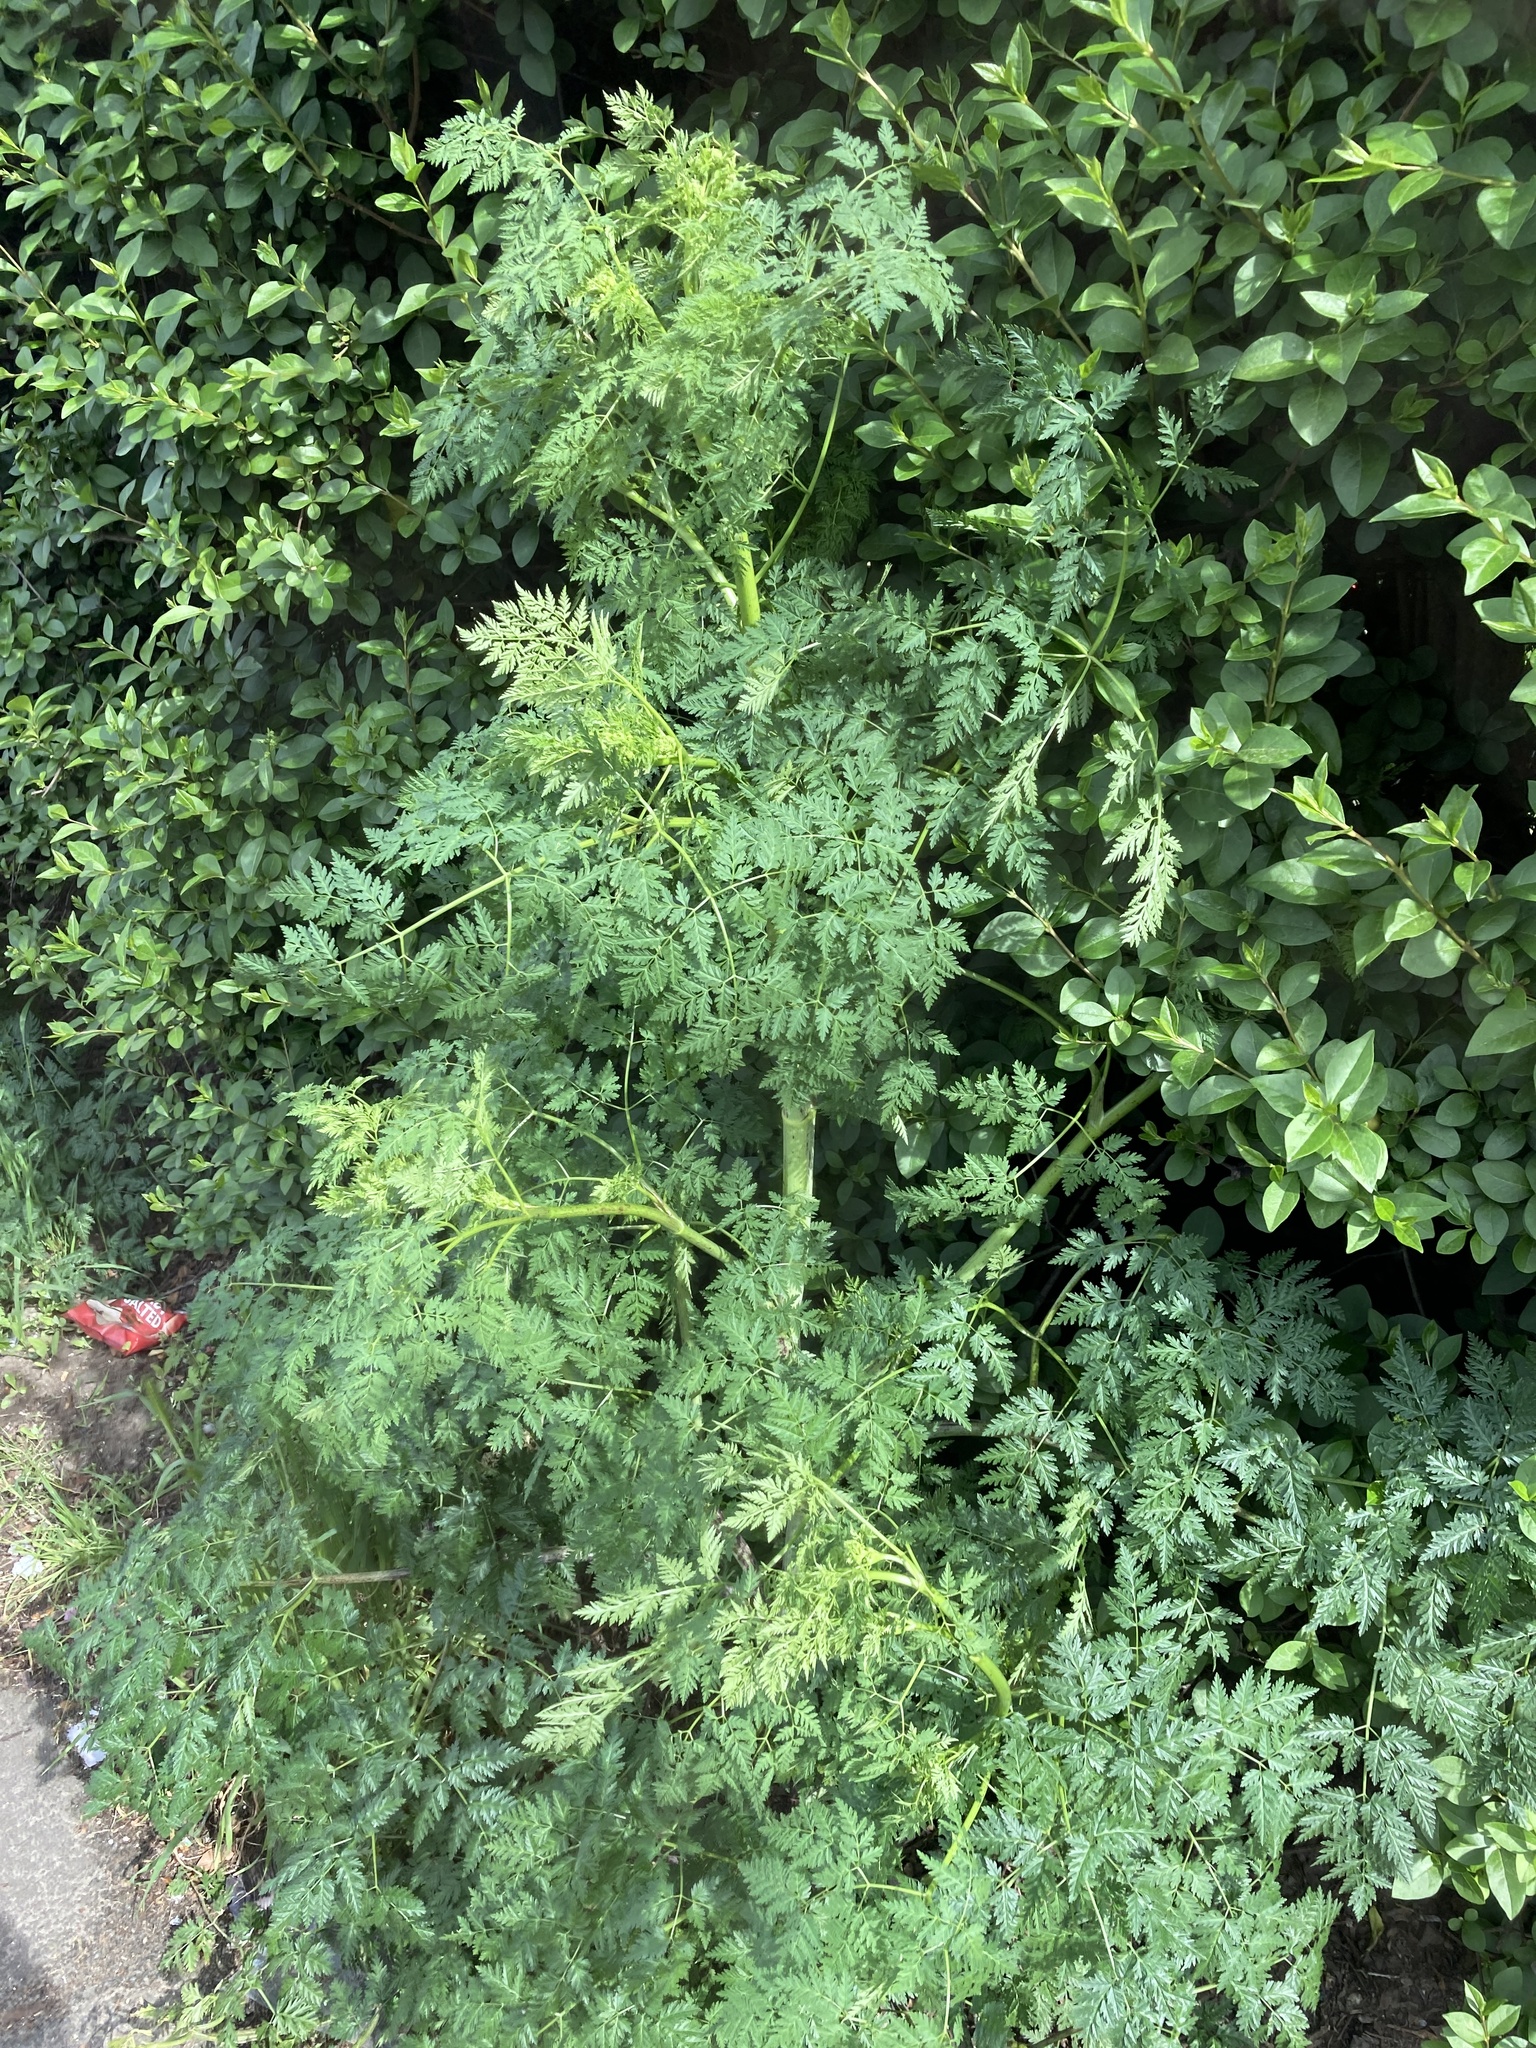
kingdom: Plantae
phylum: Tracheophyta
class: Magnoliopsida
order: Apiales
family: Apiaceae
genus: Conium
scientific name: Conium maculatum
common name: Hemlock
